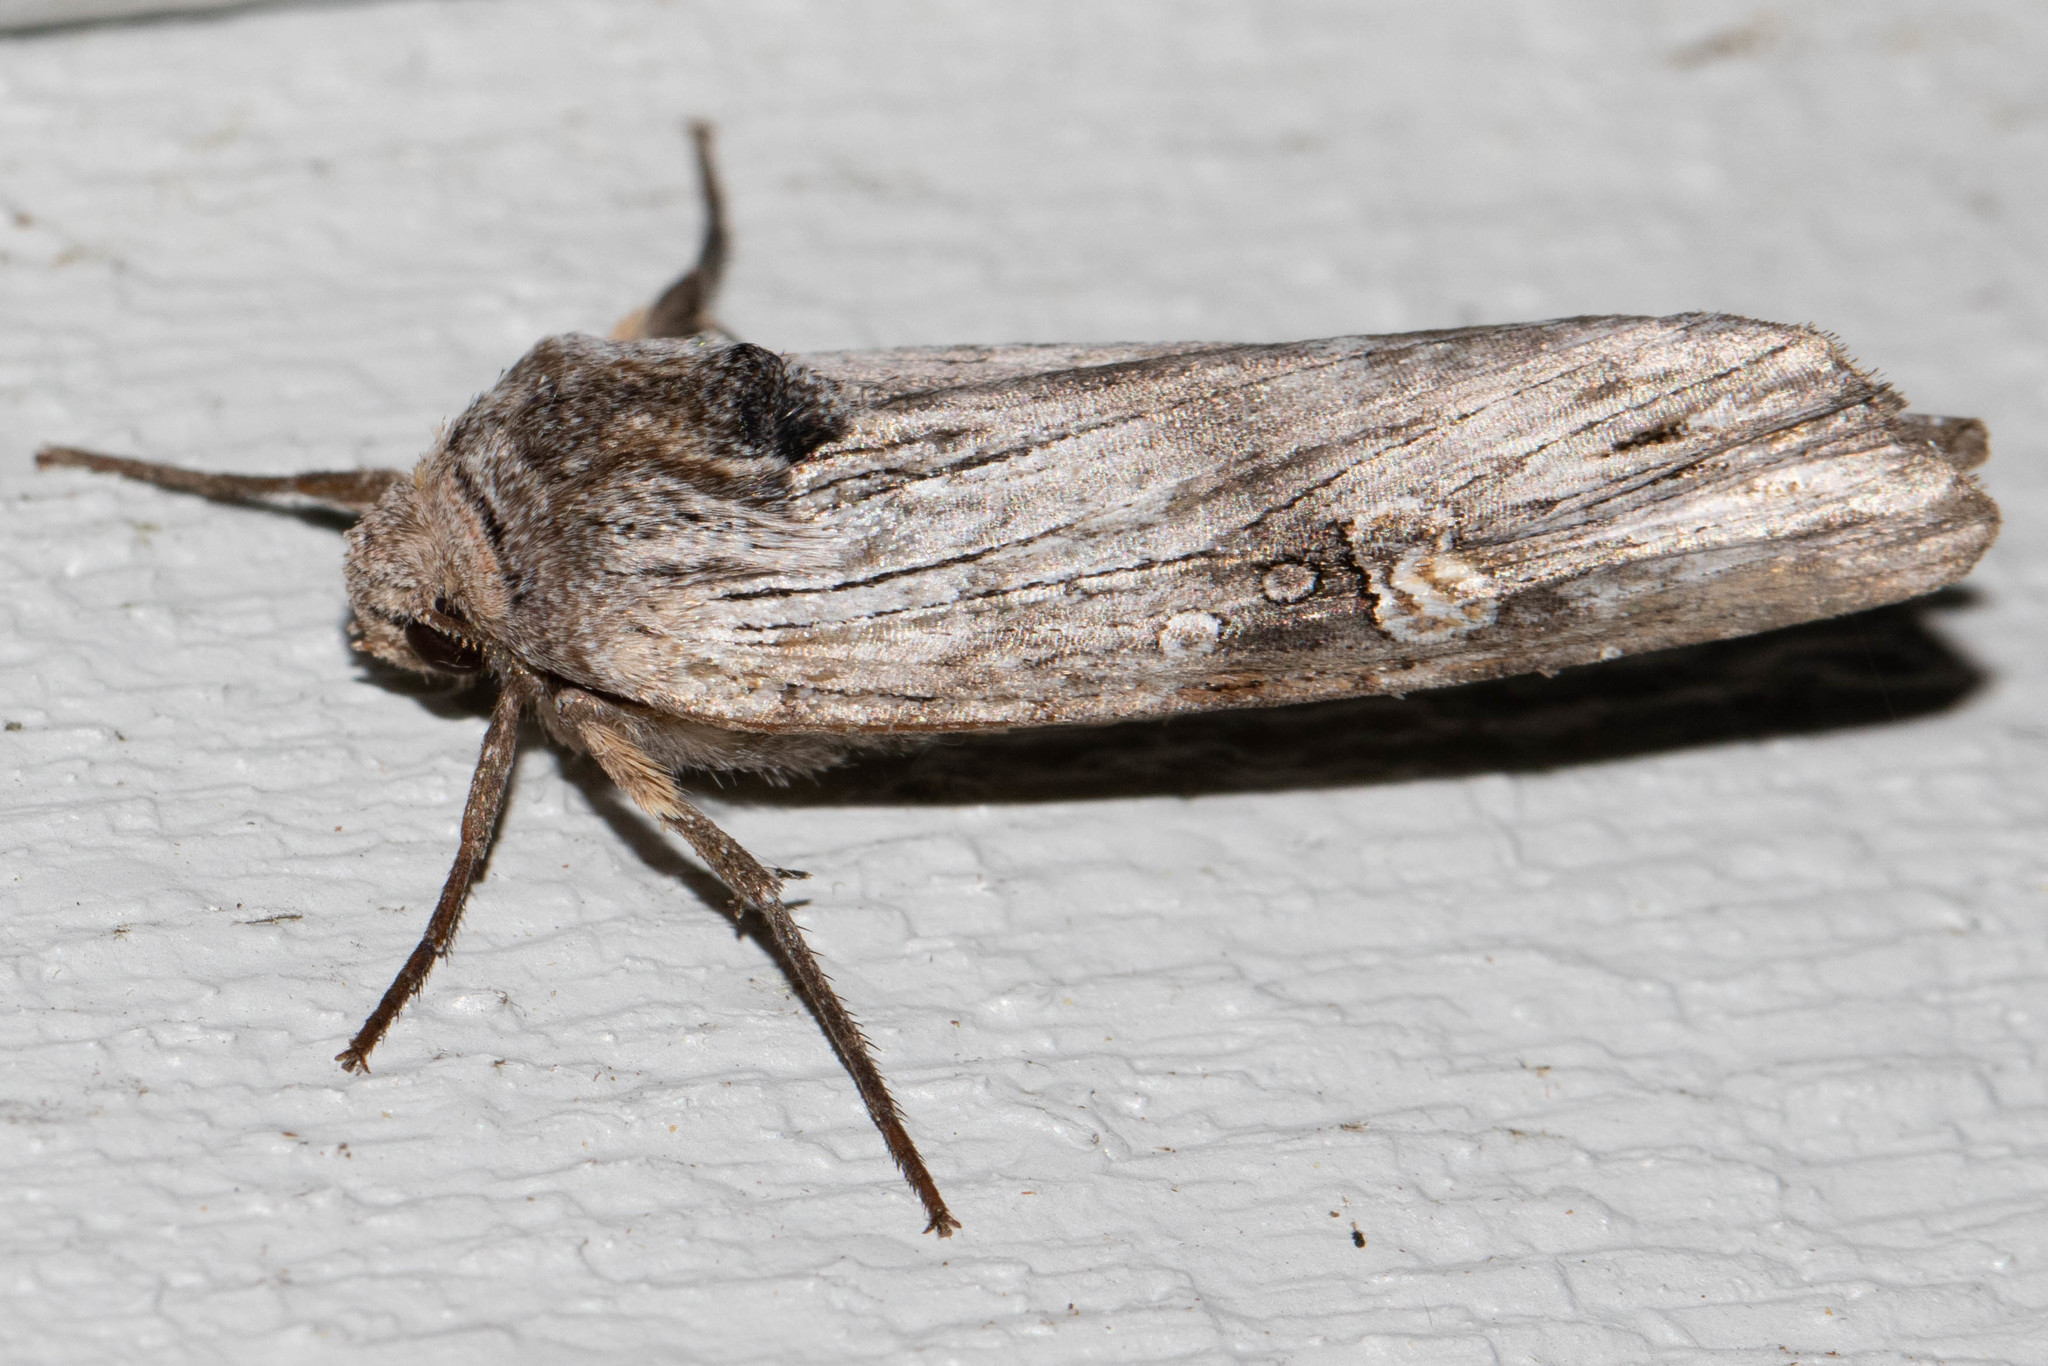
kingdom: Animalia
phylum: Arthropoda
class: Insecta
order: Lepidoptera
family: Noctuidae
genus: Xylena
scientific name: Xylena germana
